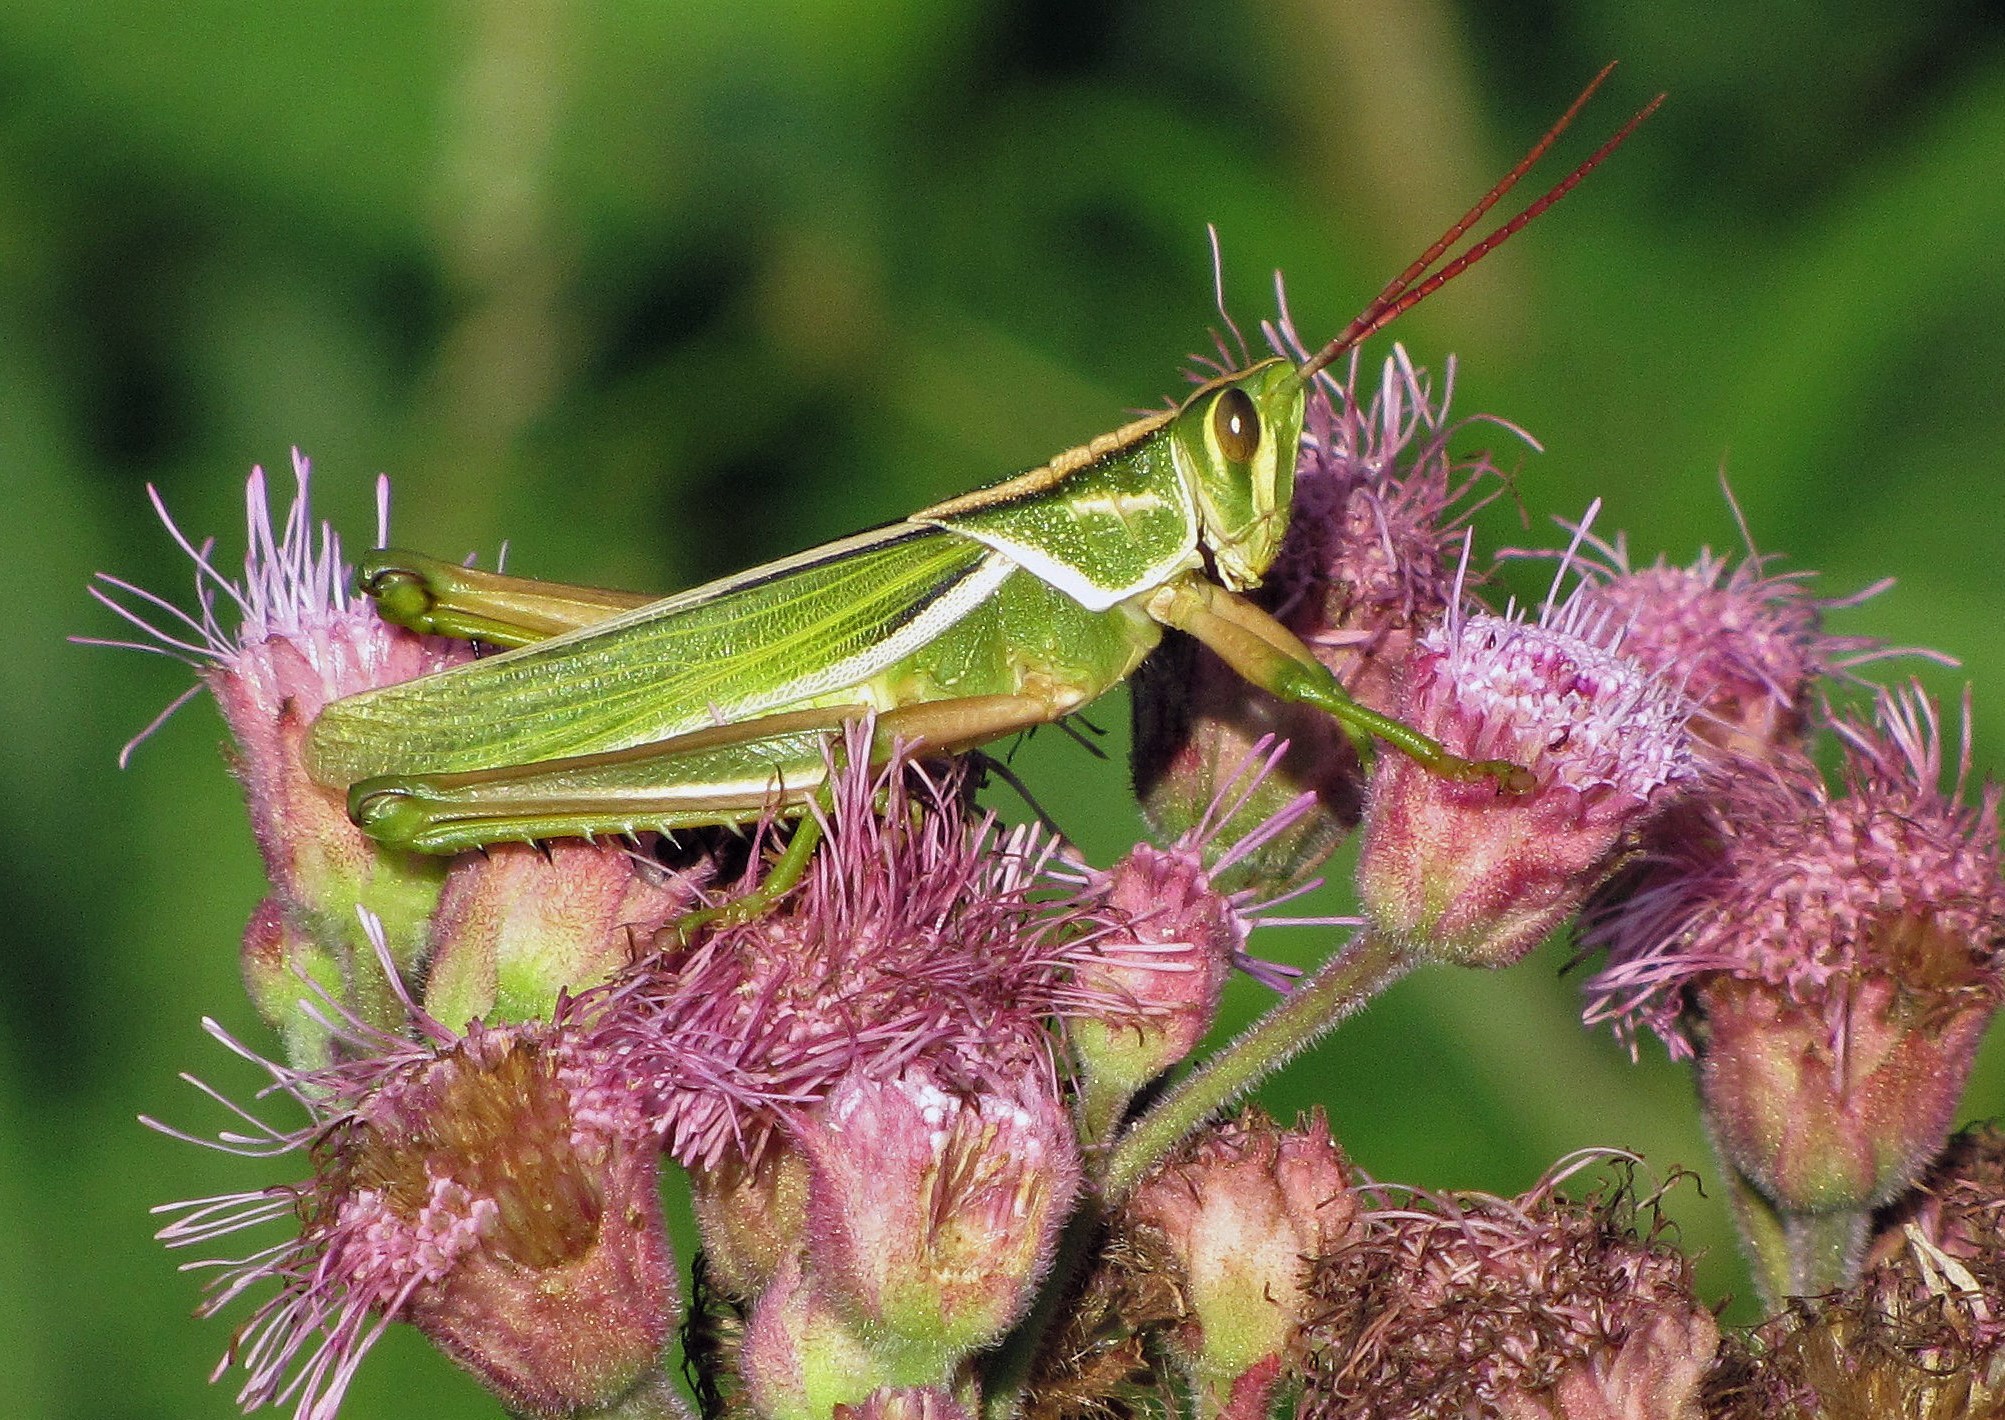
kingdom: Animalia
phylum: Arthropoda
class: Insecta
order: Orthoptera
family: Romaleidae
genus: Staleochlora
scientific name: Staleochlora viridicata
